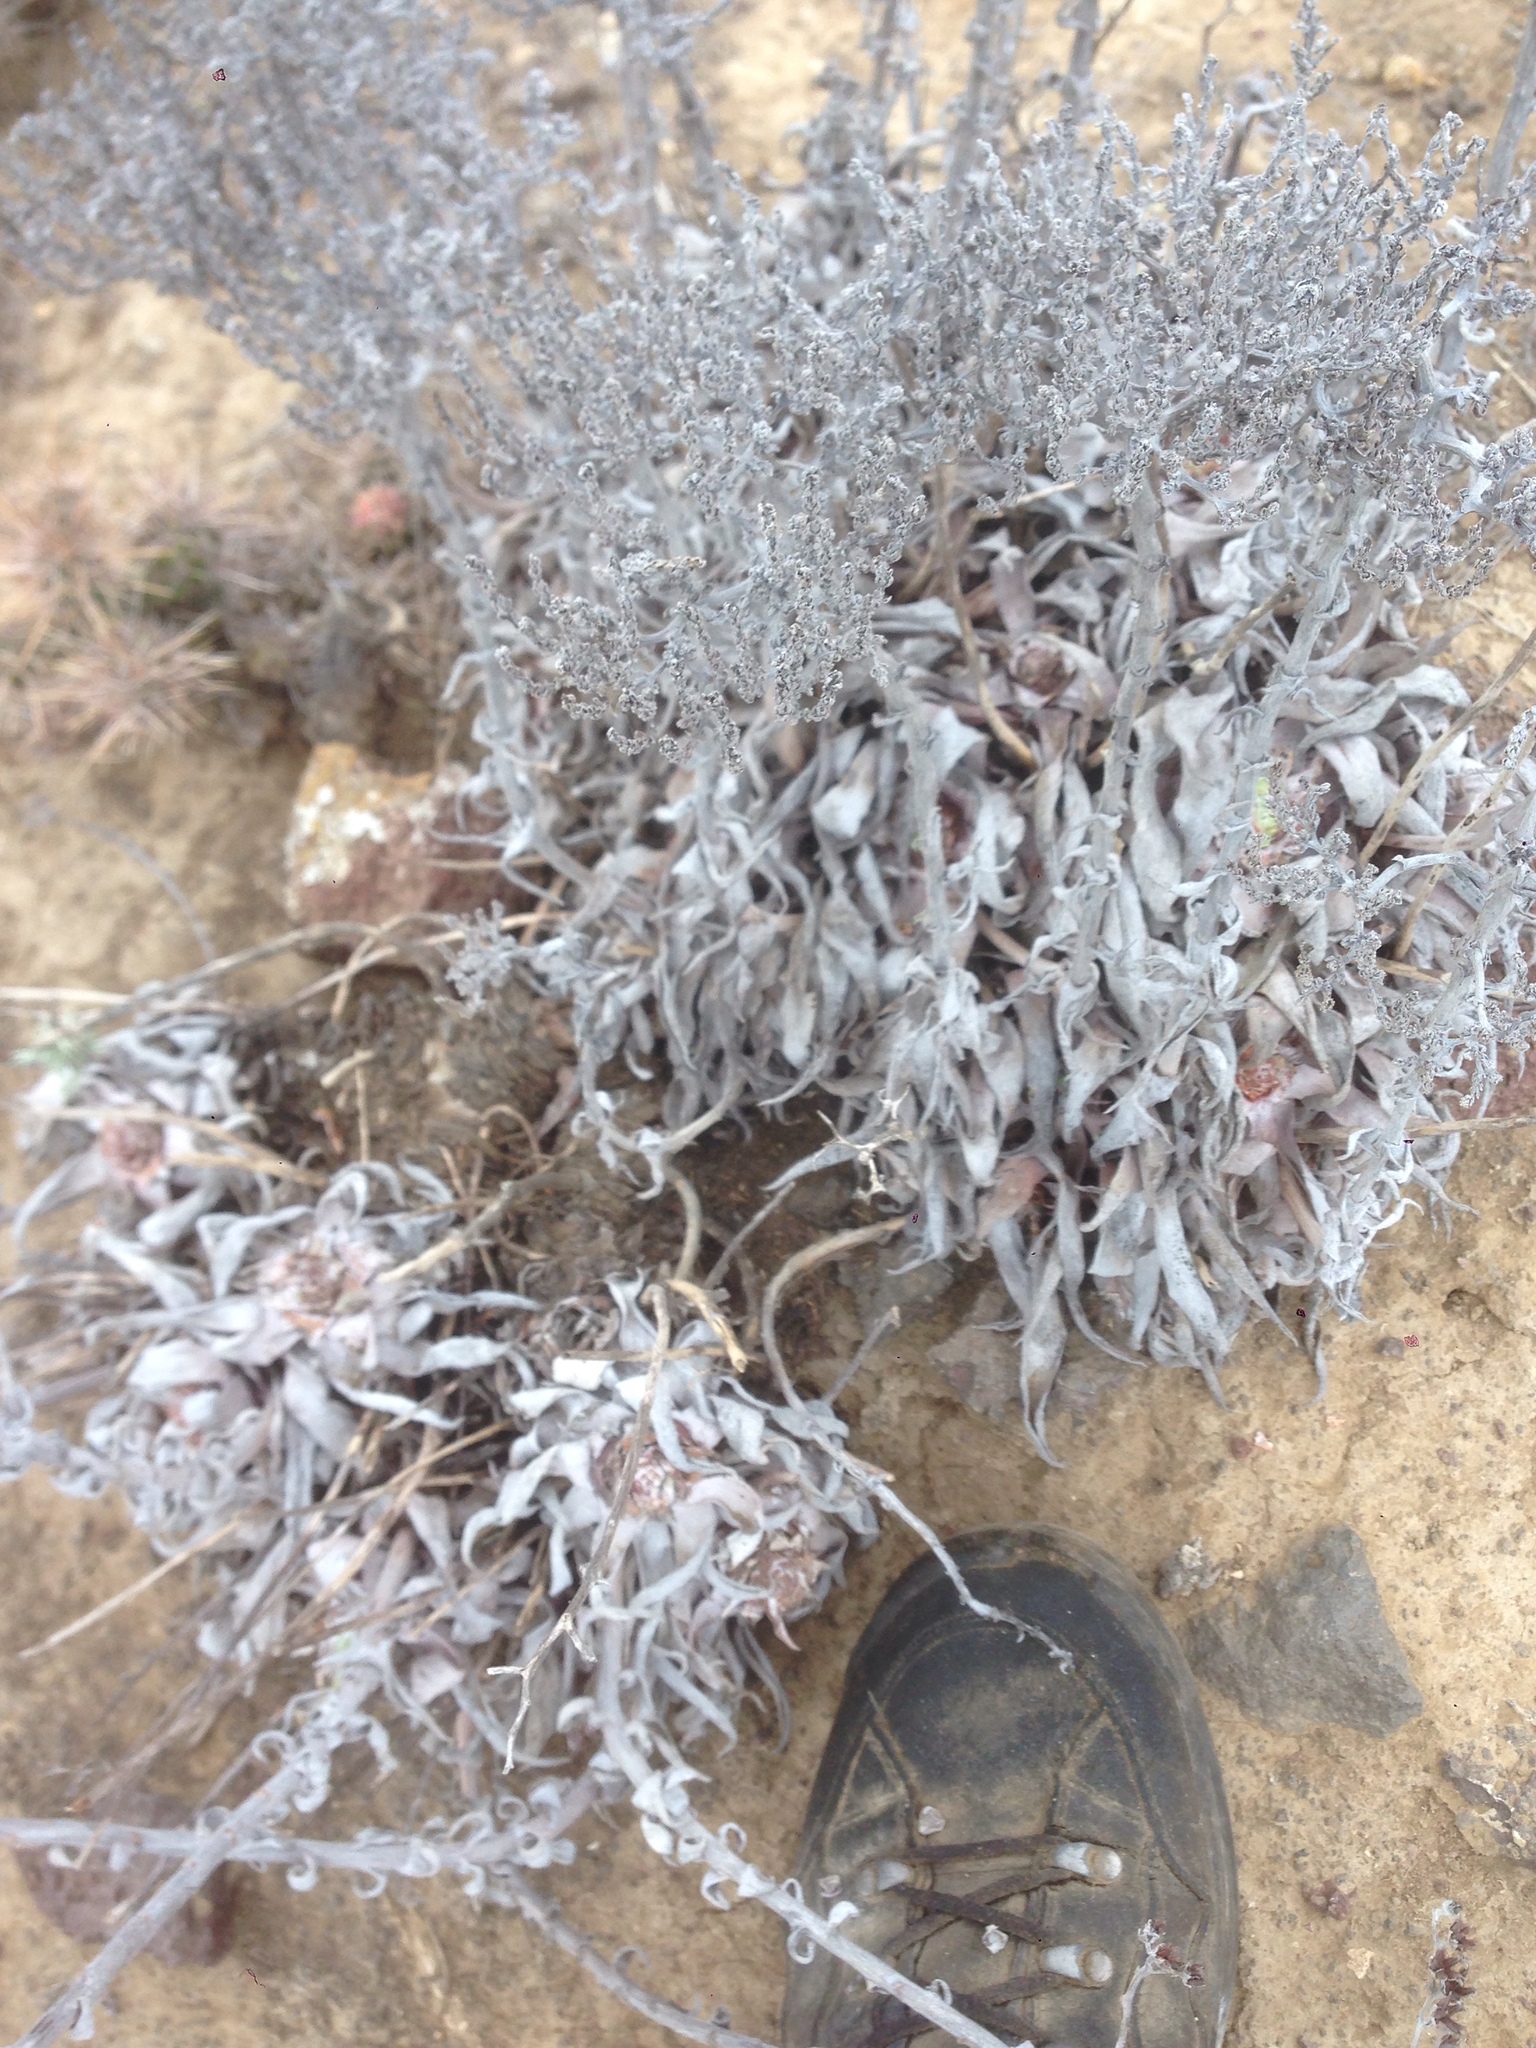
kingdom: Plantae
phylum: Tracheophyta
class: Magnoliopsida
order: Saxifragales
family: Crassulaceae
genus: Dudleya
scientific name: Dudleya traskiae
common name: Santa barbara island dudleya
